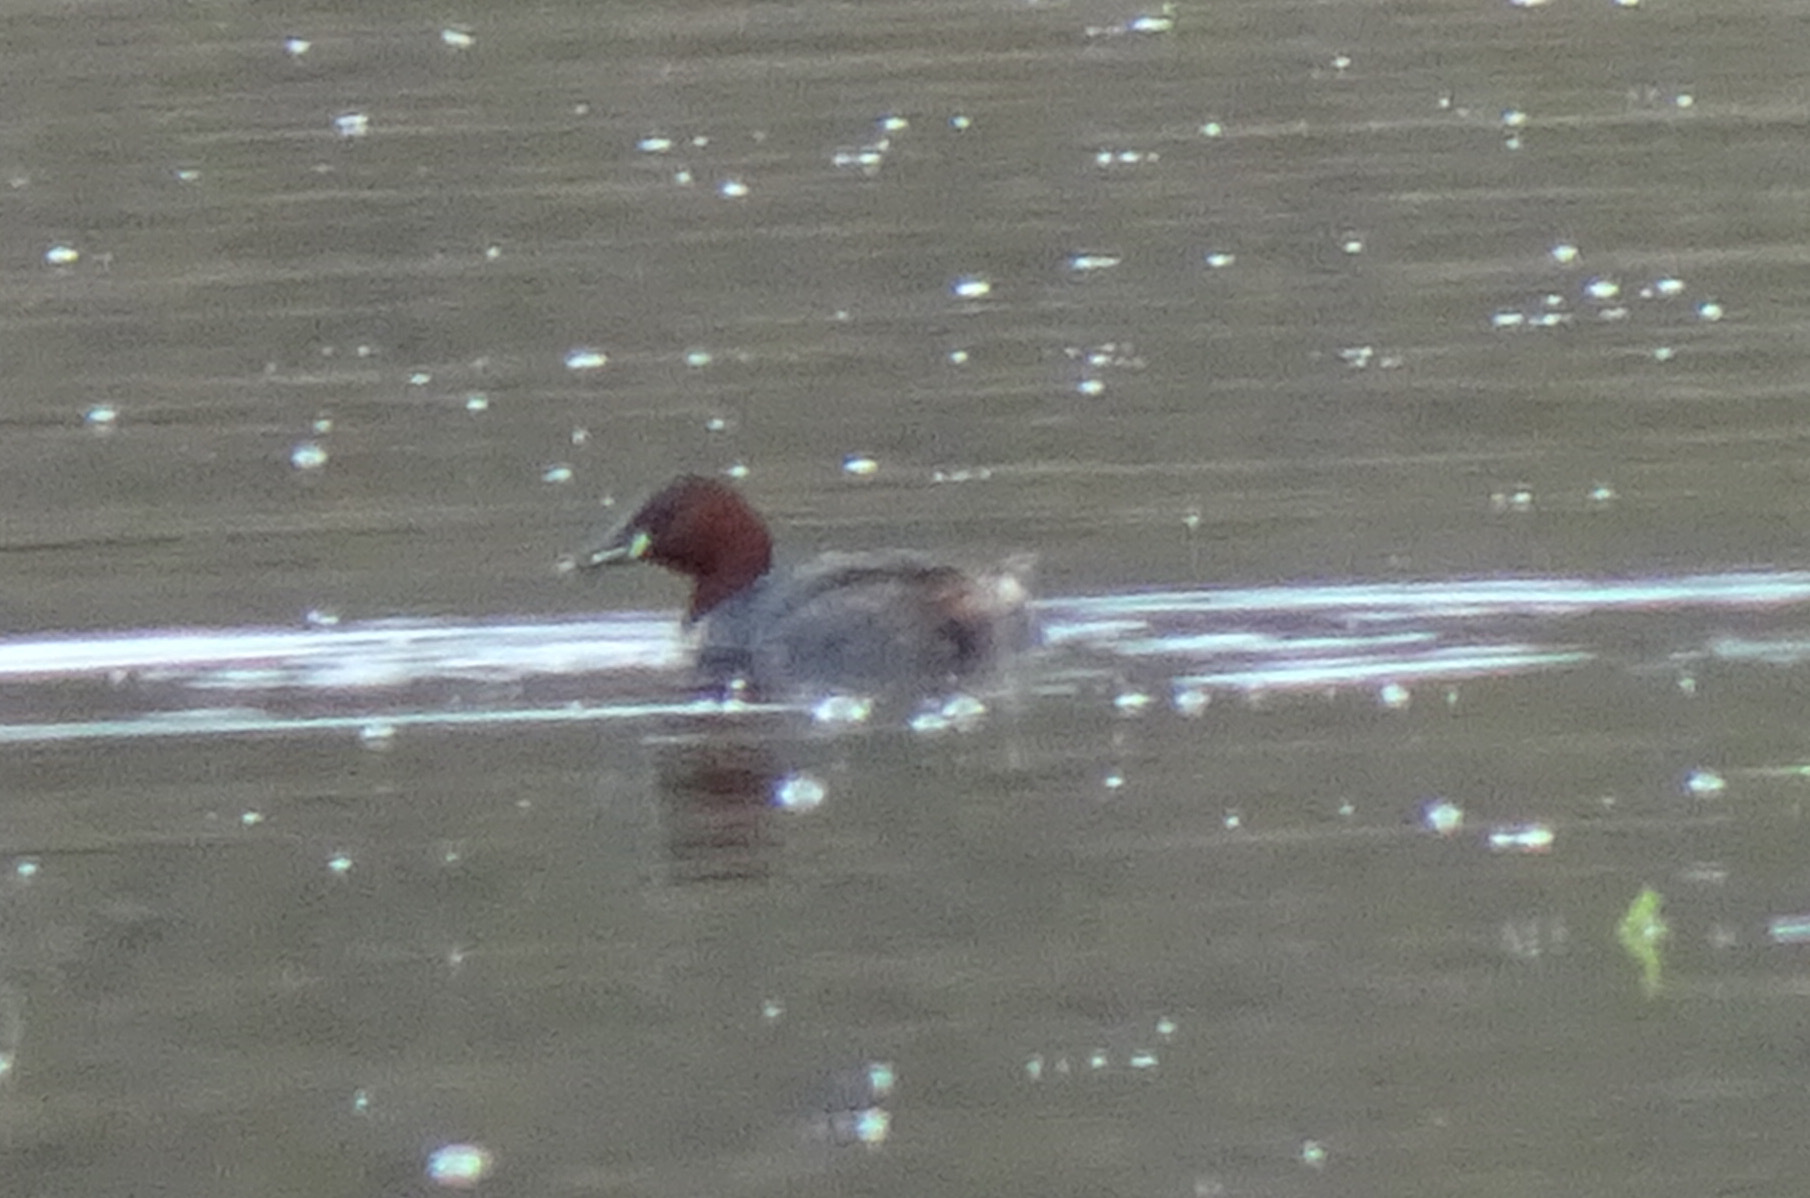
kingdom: Animalia
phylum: Chordata
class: Aves
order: Podicipediformes
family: Podicipedidae
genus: Tachybaptus
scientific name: Tachybaptus ruficollis
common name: Little grebe
